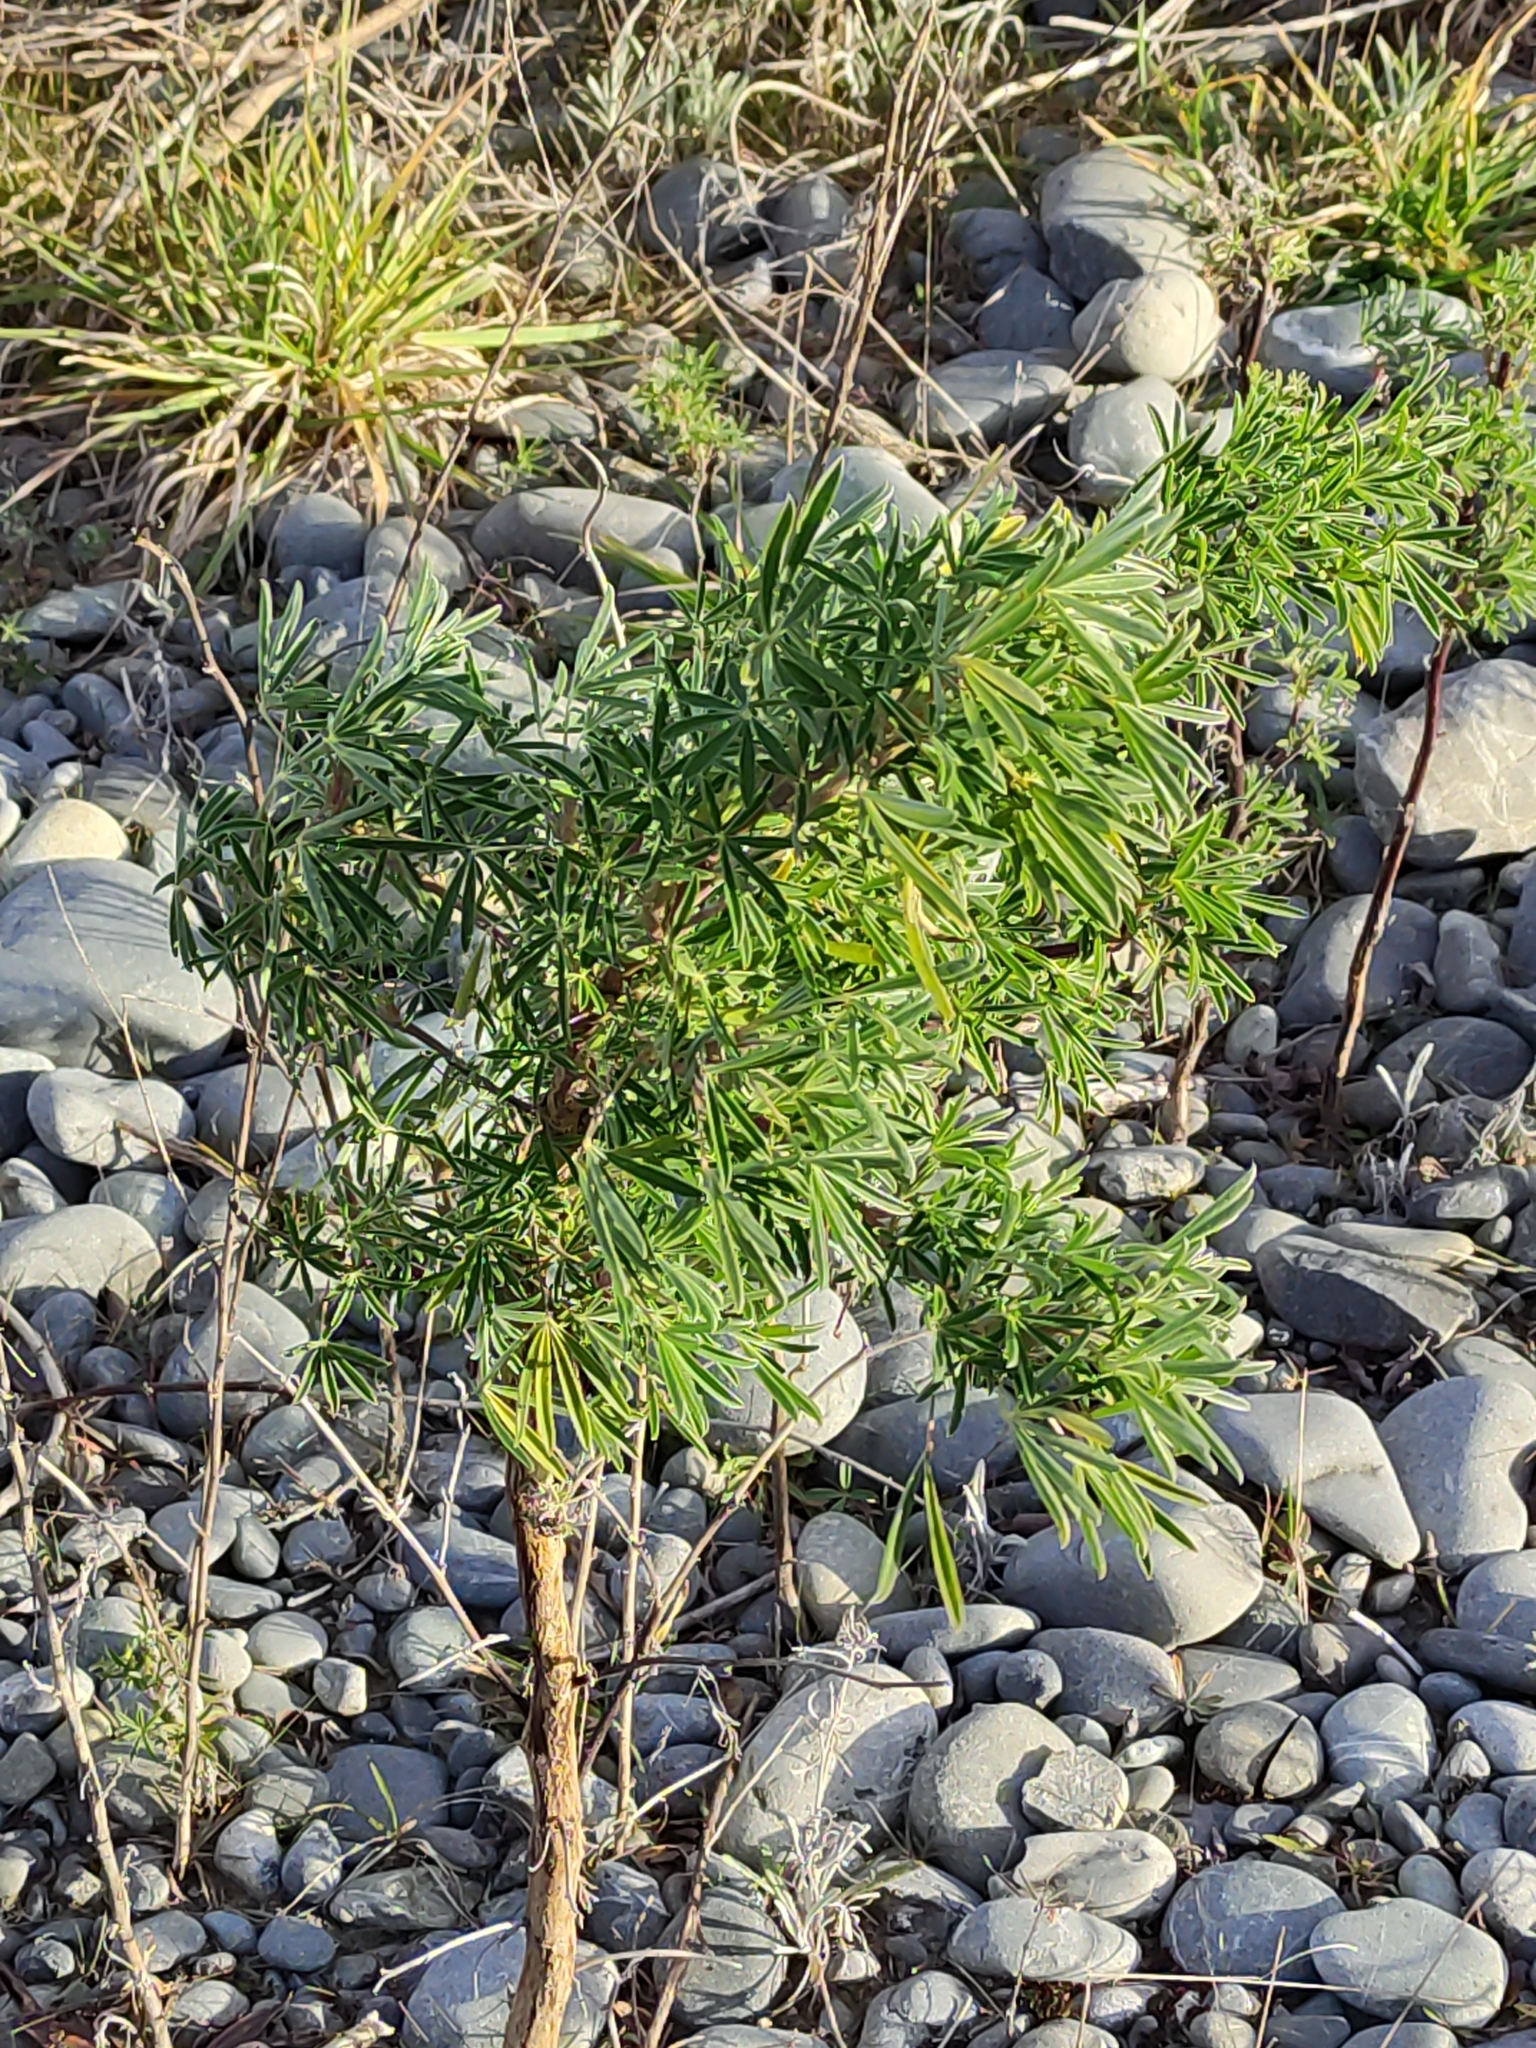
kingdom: Plantae
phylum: Tracheophyta
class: Magnoliopsida
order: Fabales
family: Fabaceae
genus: Lupinus
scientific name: Lupinus arboreus
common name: Yellow bush lupine
